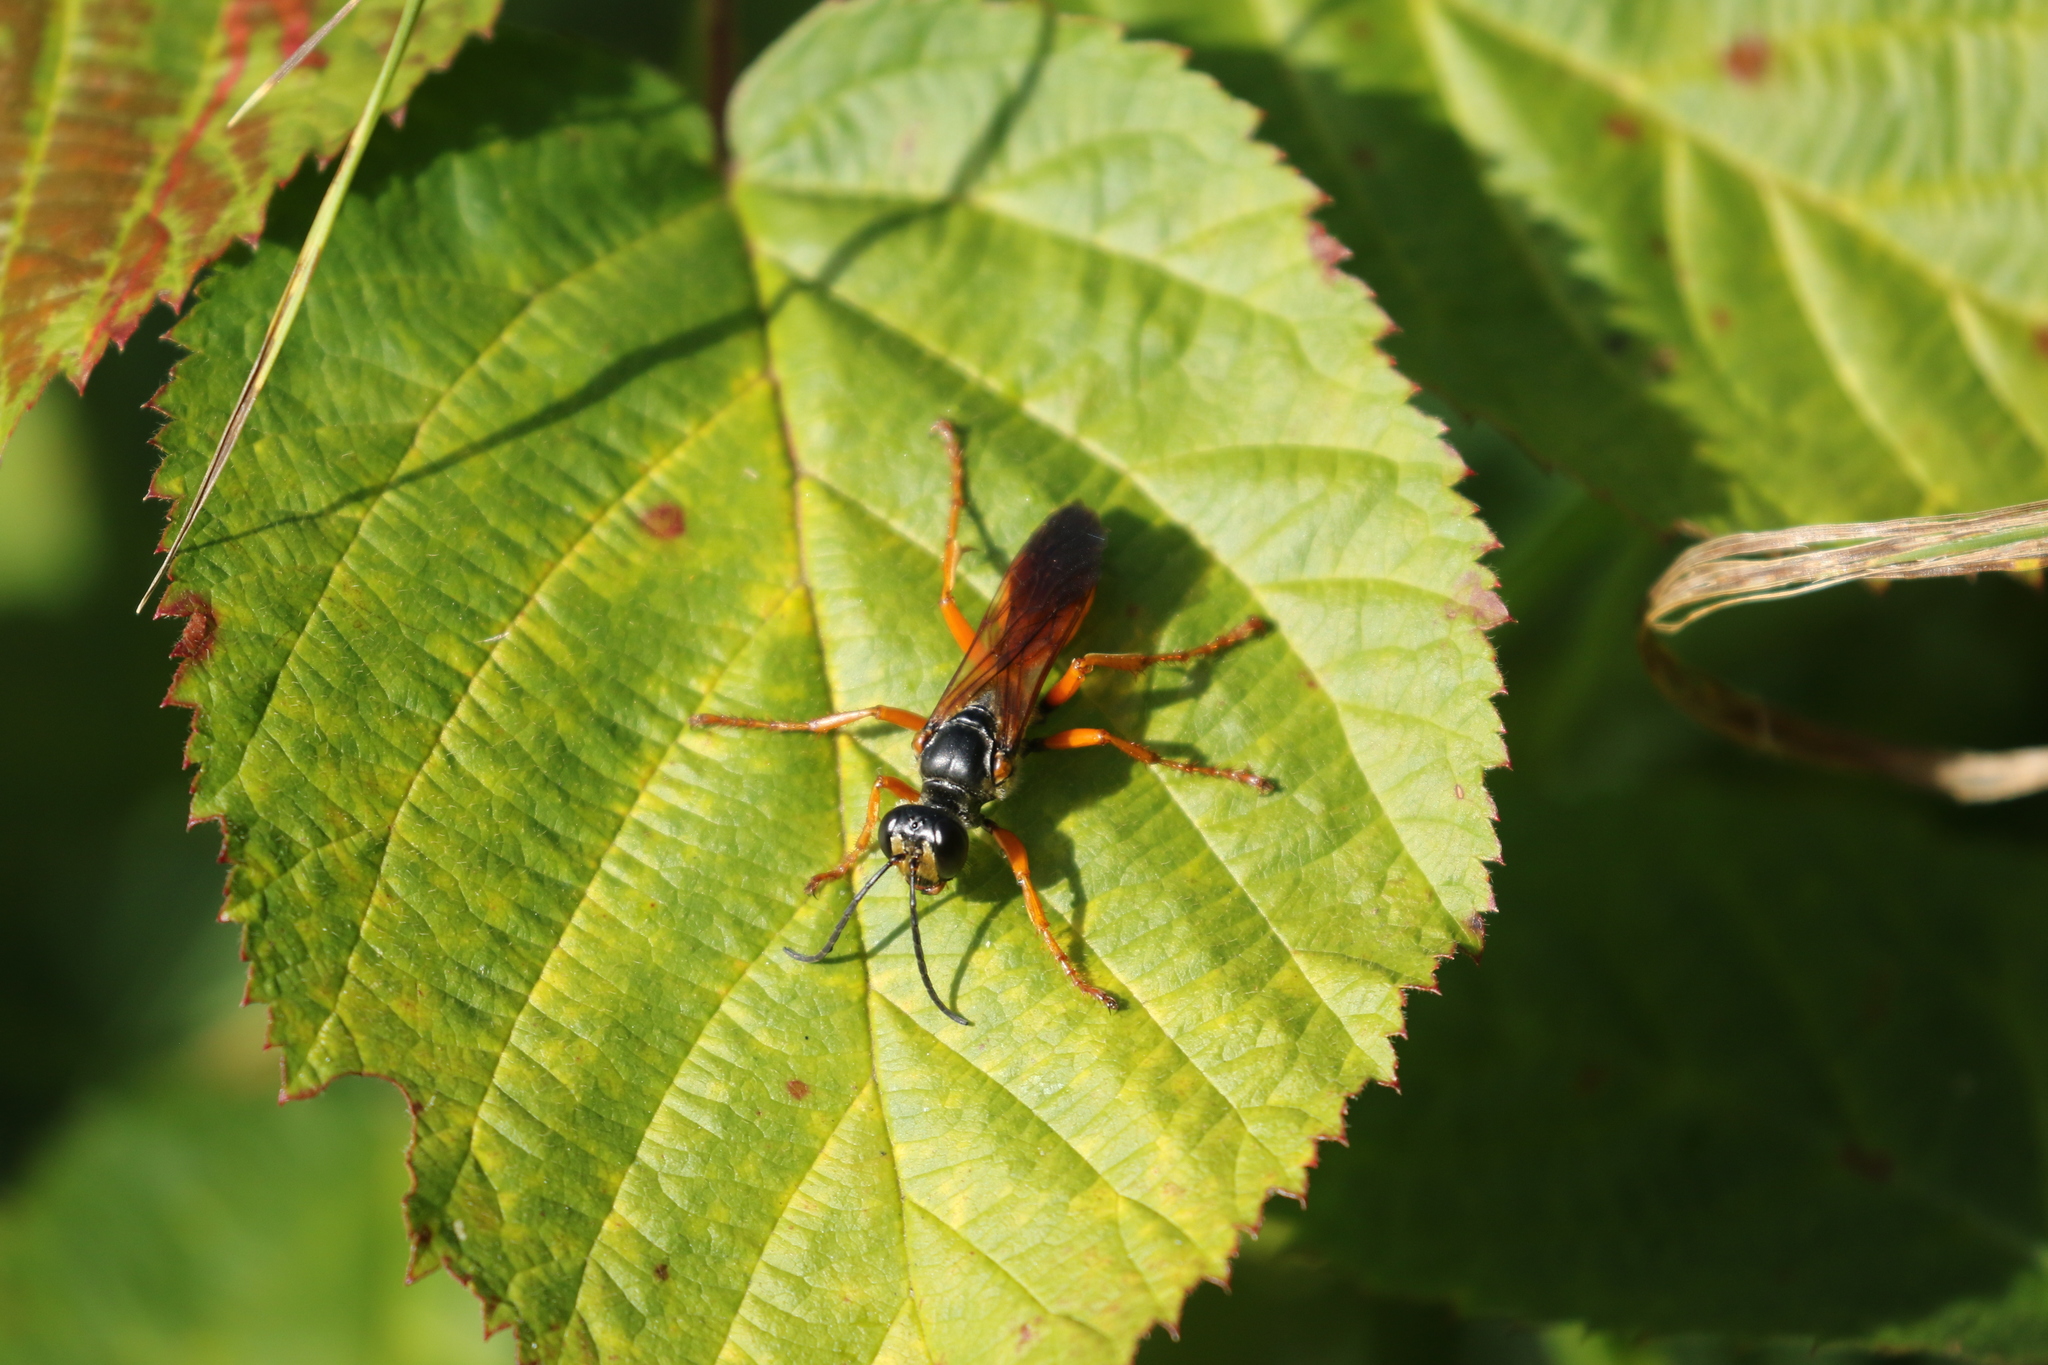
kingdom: Animalia
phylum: Arthropoda
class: Insecta
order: Hymenoptera
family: Sphecidae
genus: Sphex
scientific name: Sphex ichneumoneus
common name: Great golden digger wasp
